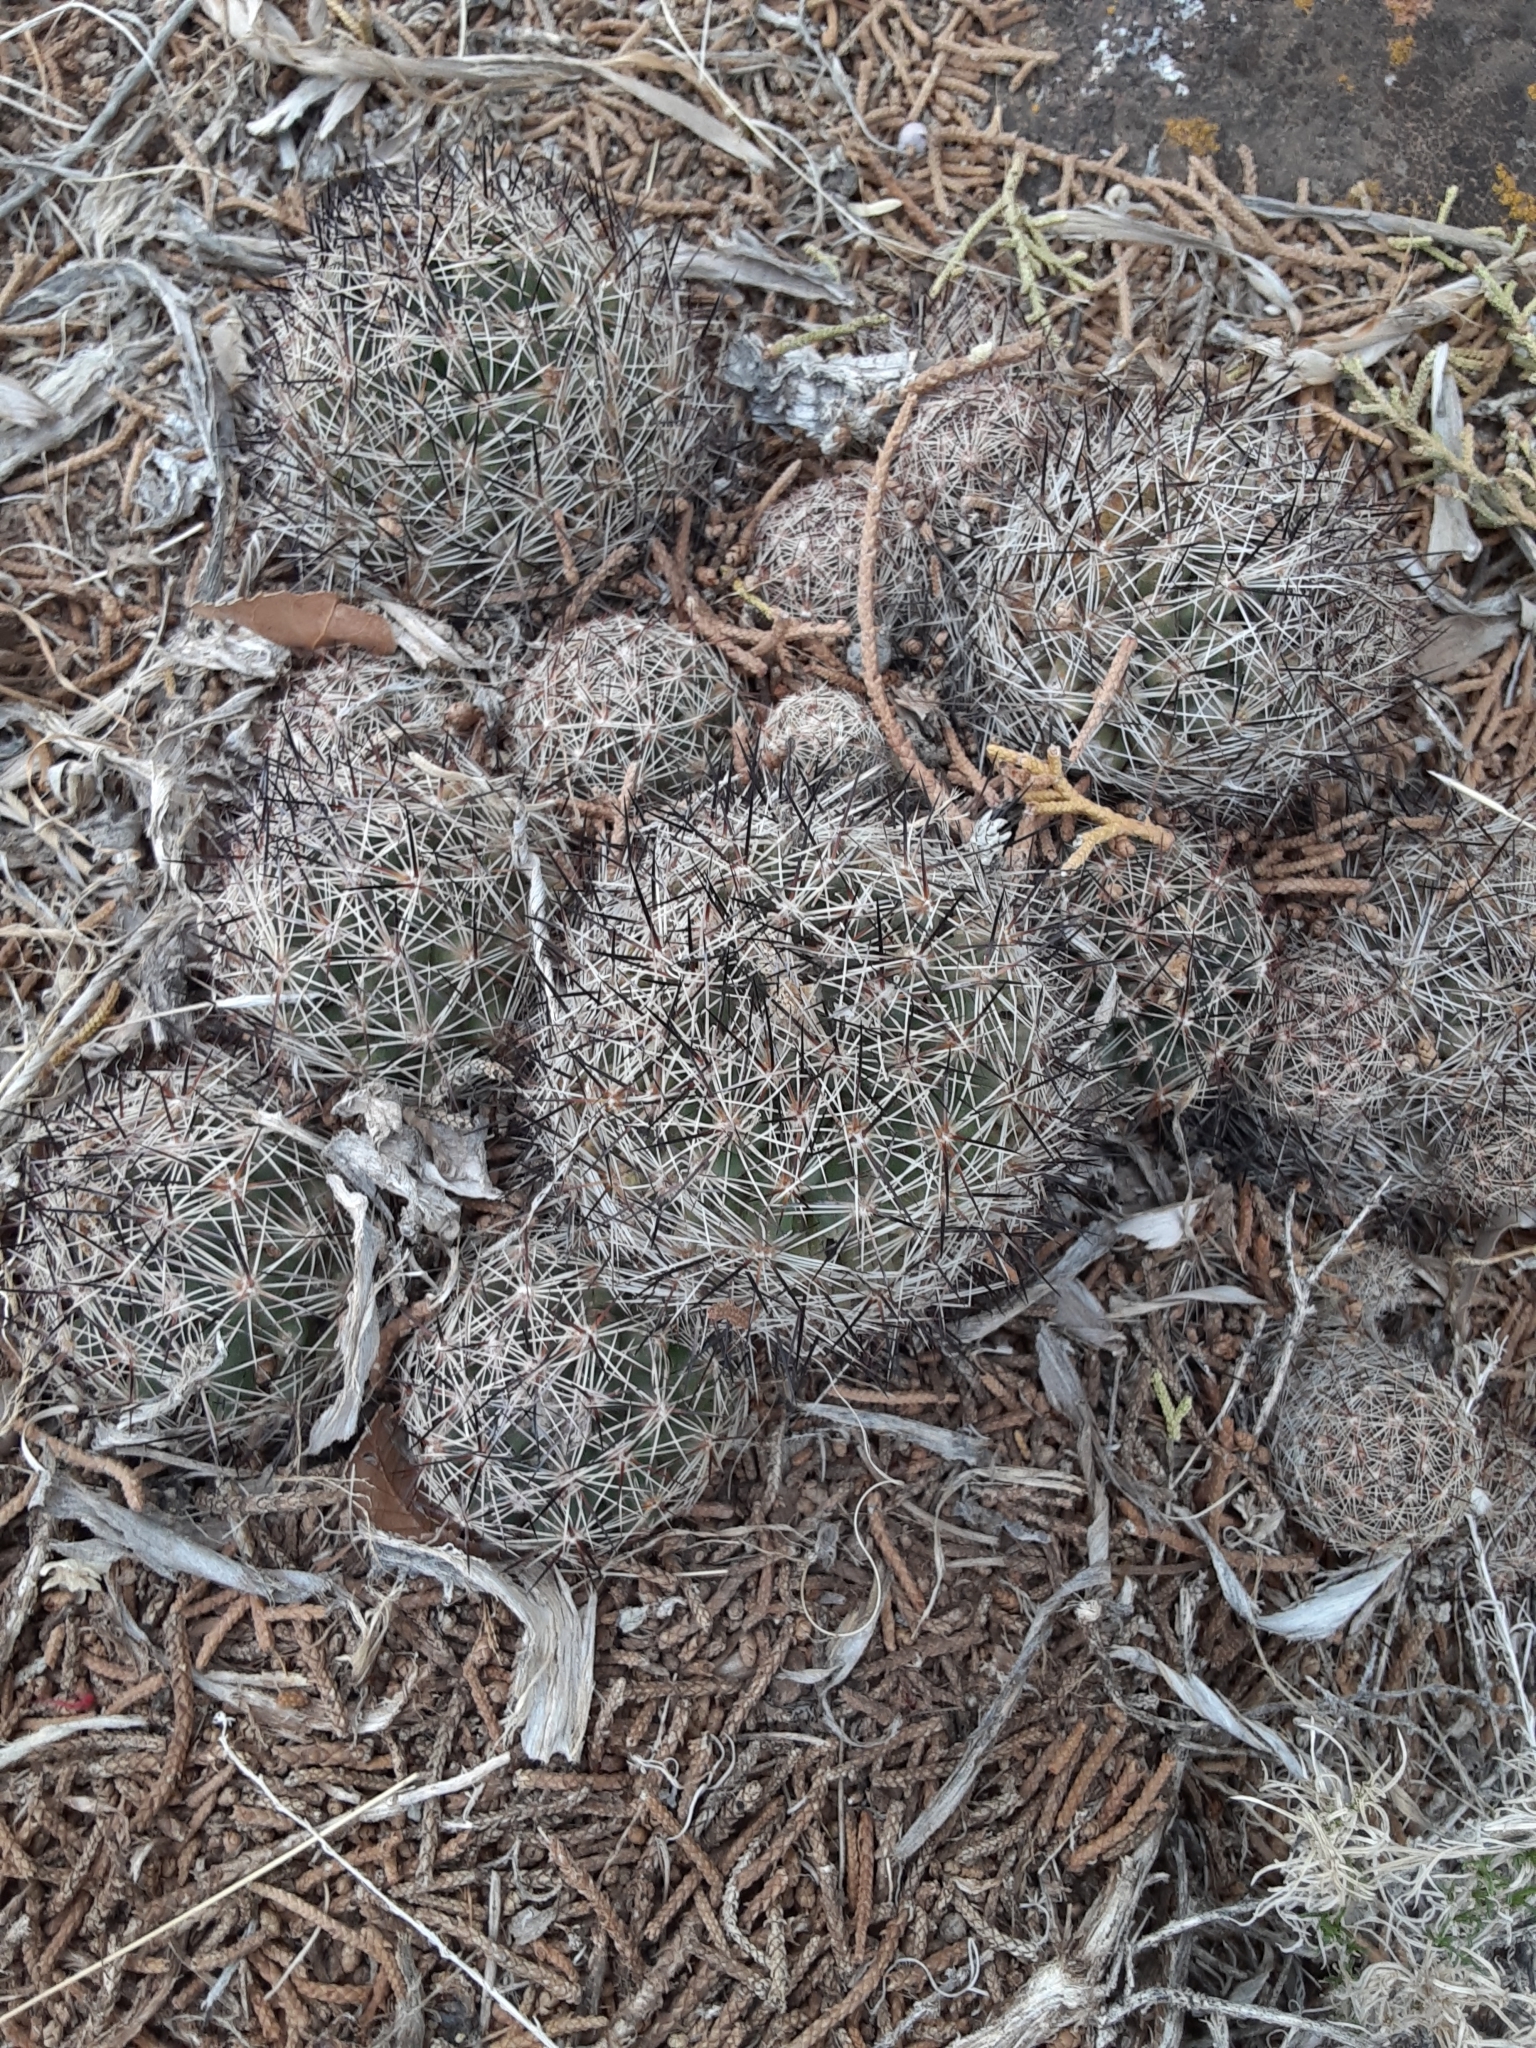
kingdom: Plantae
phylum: Tracheophyta
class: Magnoliopsida
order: Caryophyllales
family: Cactaceae
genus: Pelecyphora
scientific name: Pelecyphora vivipara
